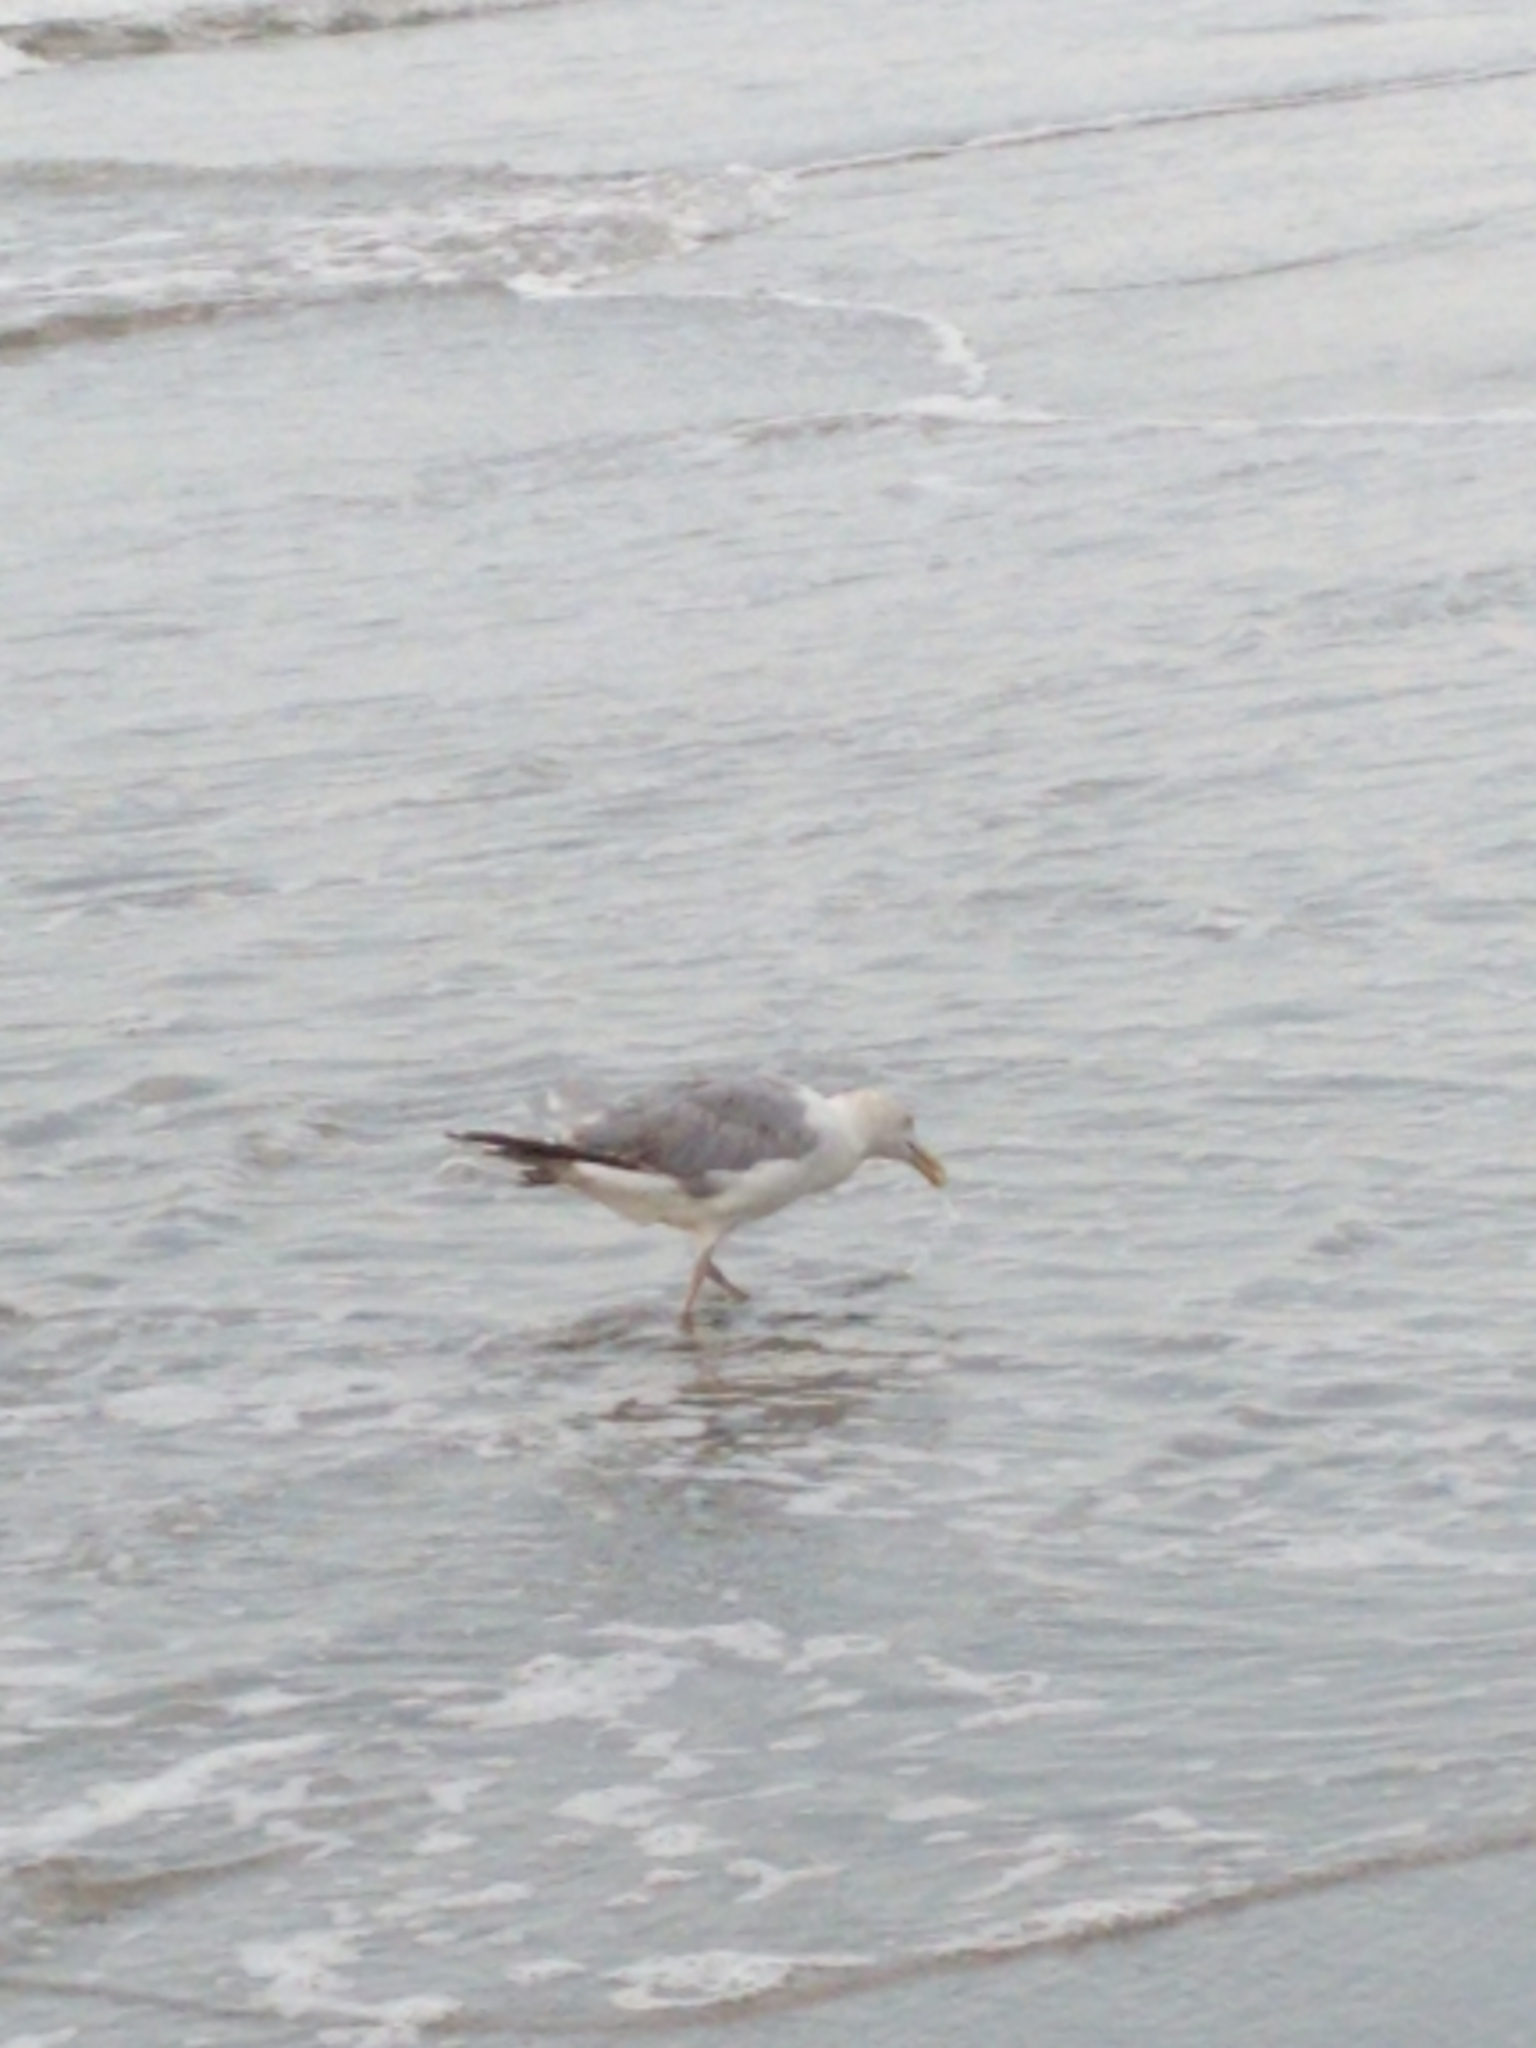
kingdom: Animalia
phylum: Chordata
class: Aves
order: Charadriiformes
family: Laridae
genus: Larus
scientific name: Larus argentatus
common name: Herring gull
